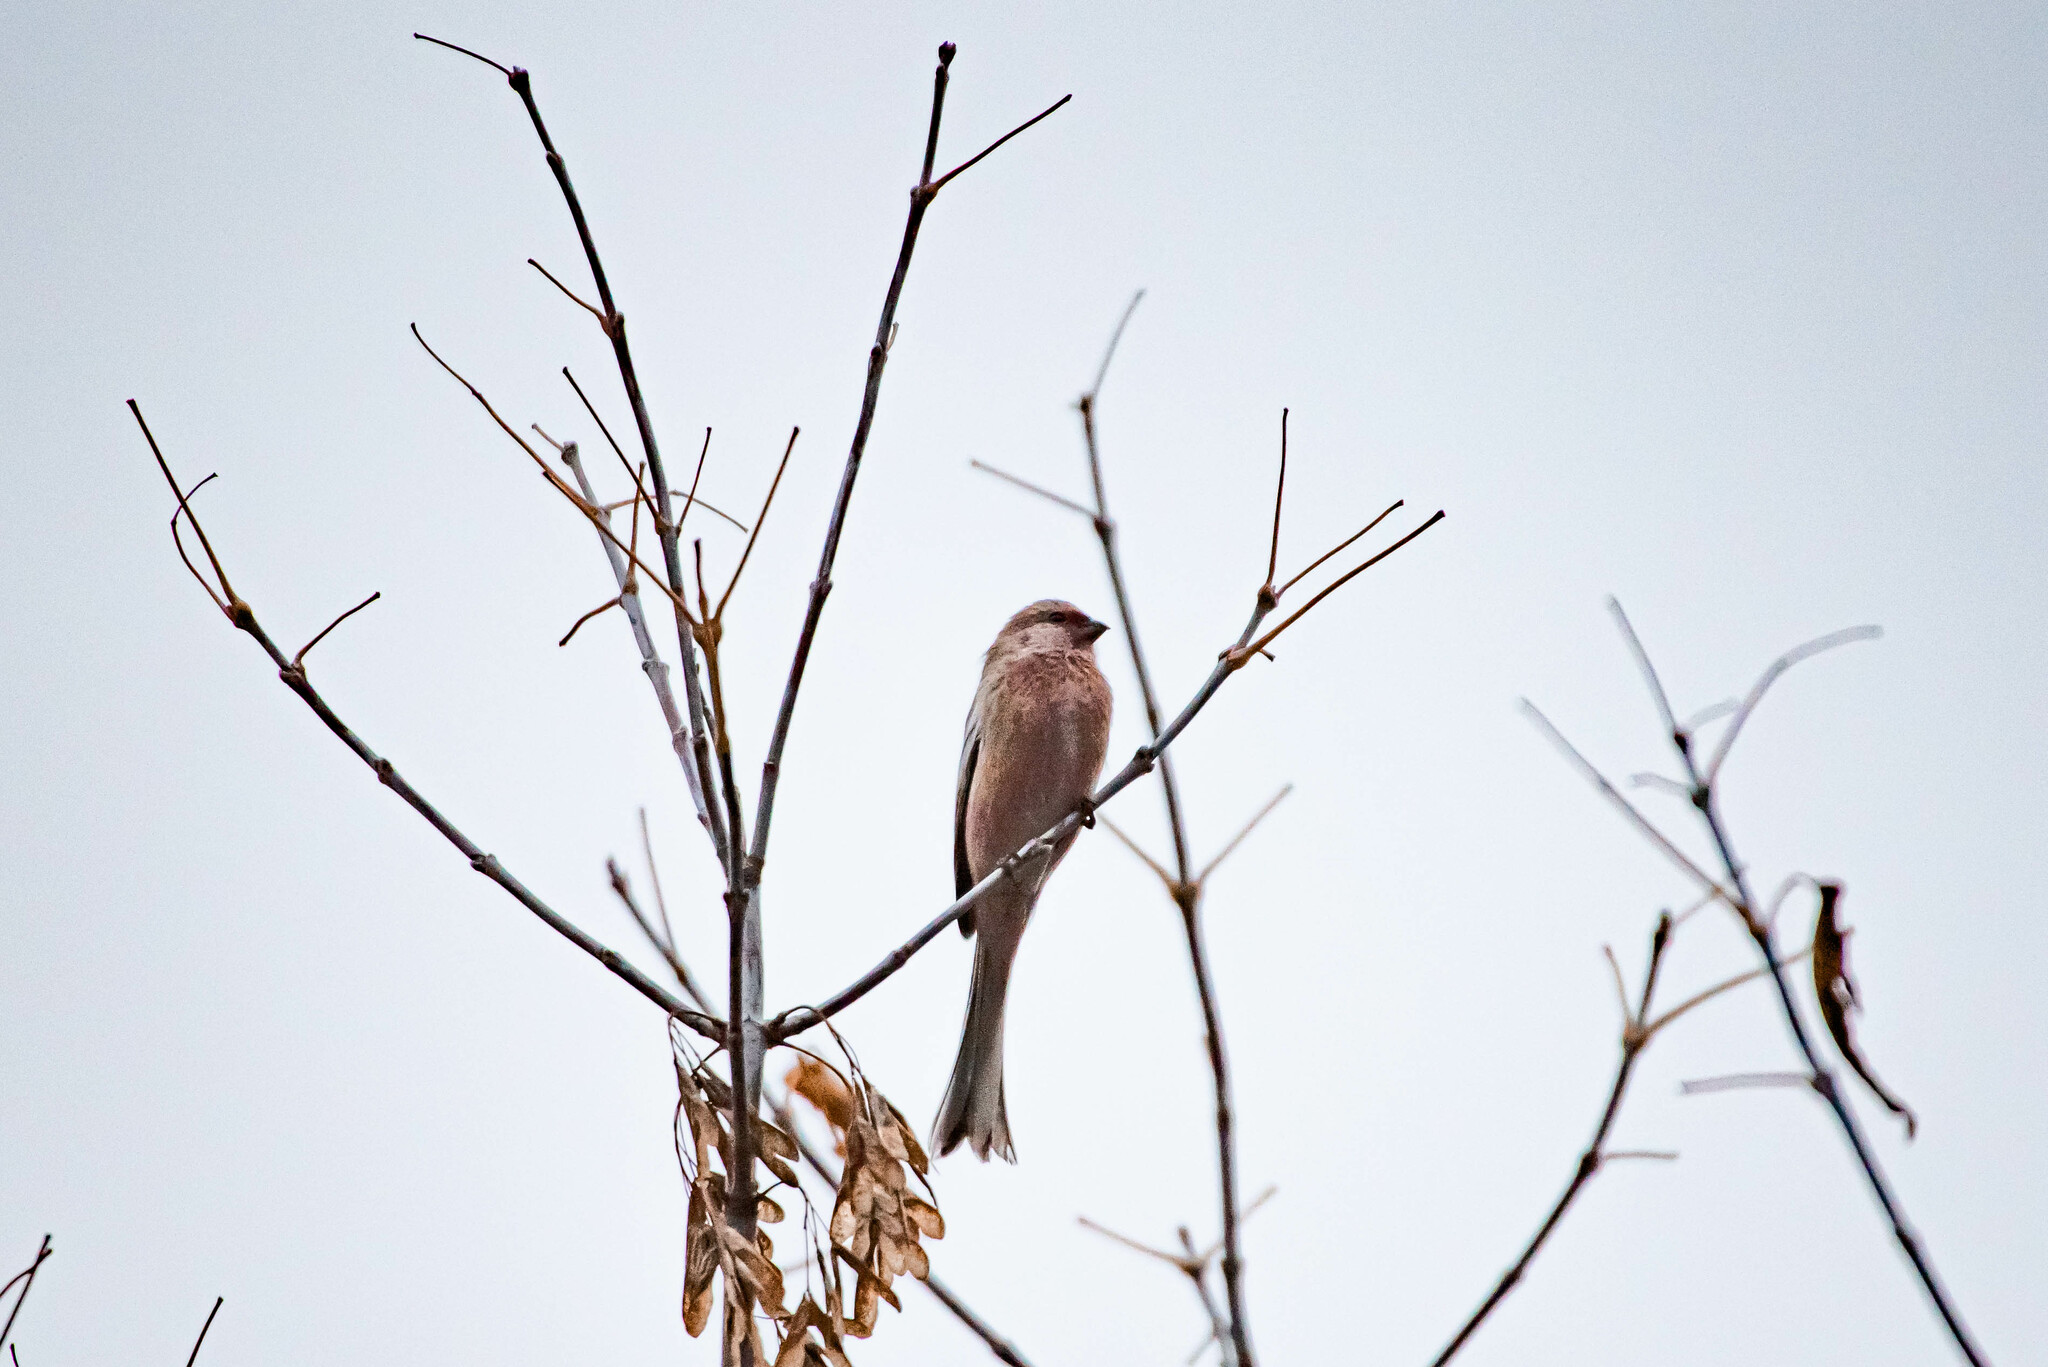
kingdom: Animalia
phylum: Chordata
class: Aves
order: Passeriformes
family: Fringillidae
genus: Carpodacus
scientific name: Carpodacus sibiricus
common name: Long-tailed rosefinch
